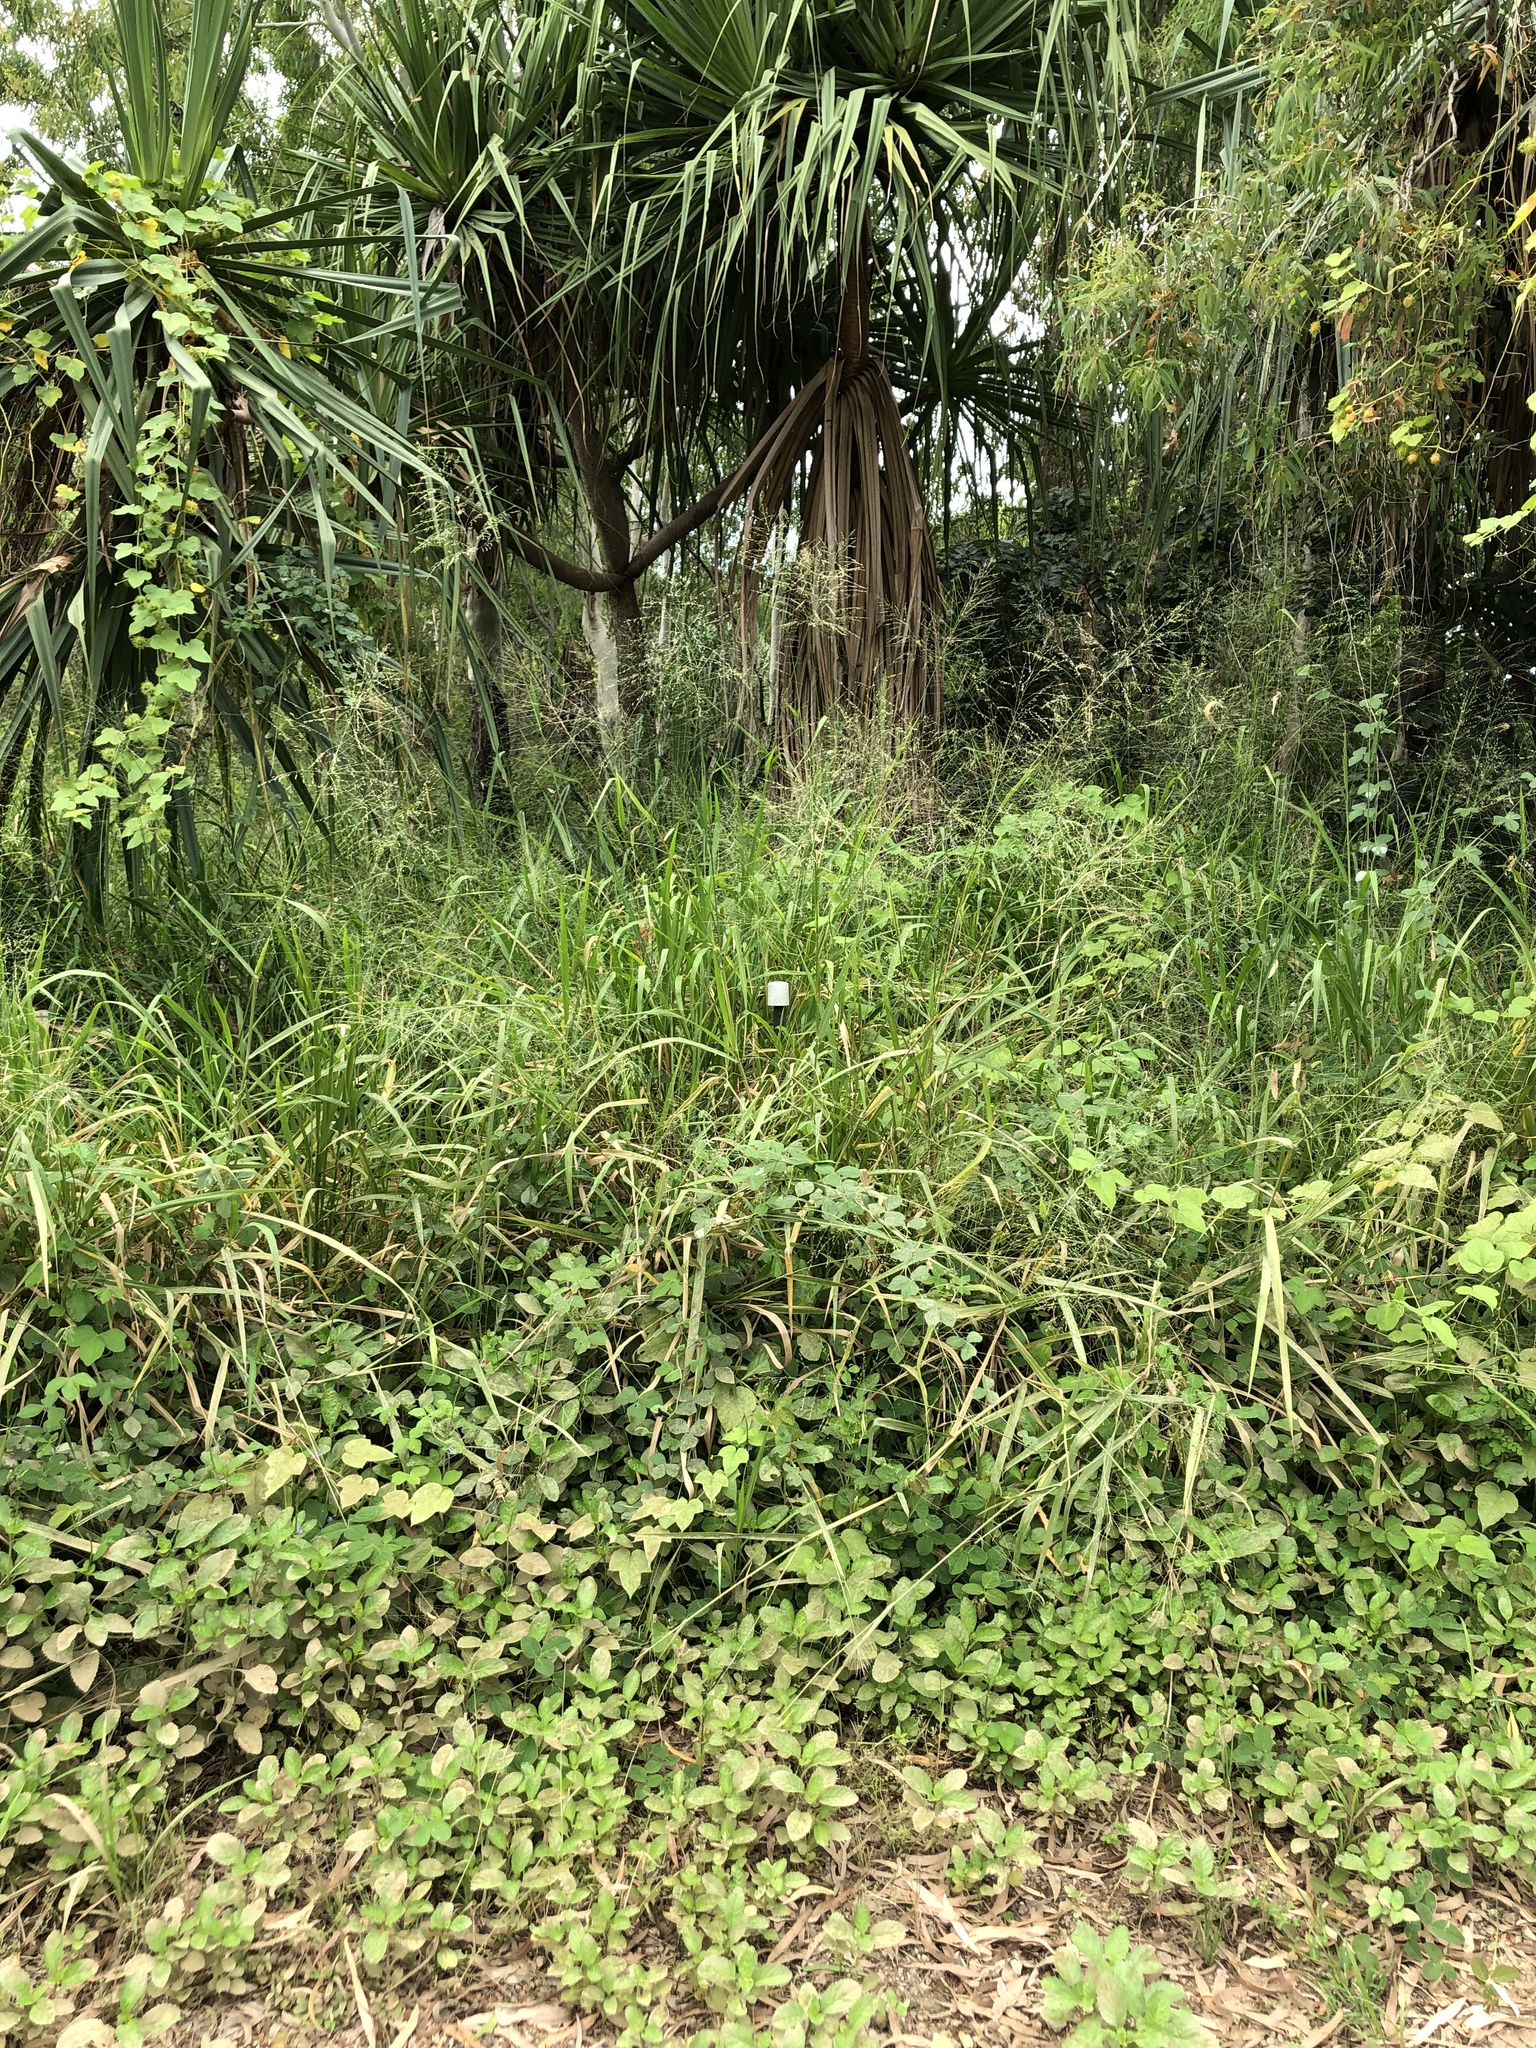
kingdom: Plantae
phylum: Tracheophyta
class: Liliopsida
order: Poales
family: Poaceae
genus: Megathyrsus
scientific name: Megathyrsus maximus
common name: Guineagrass
